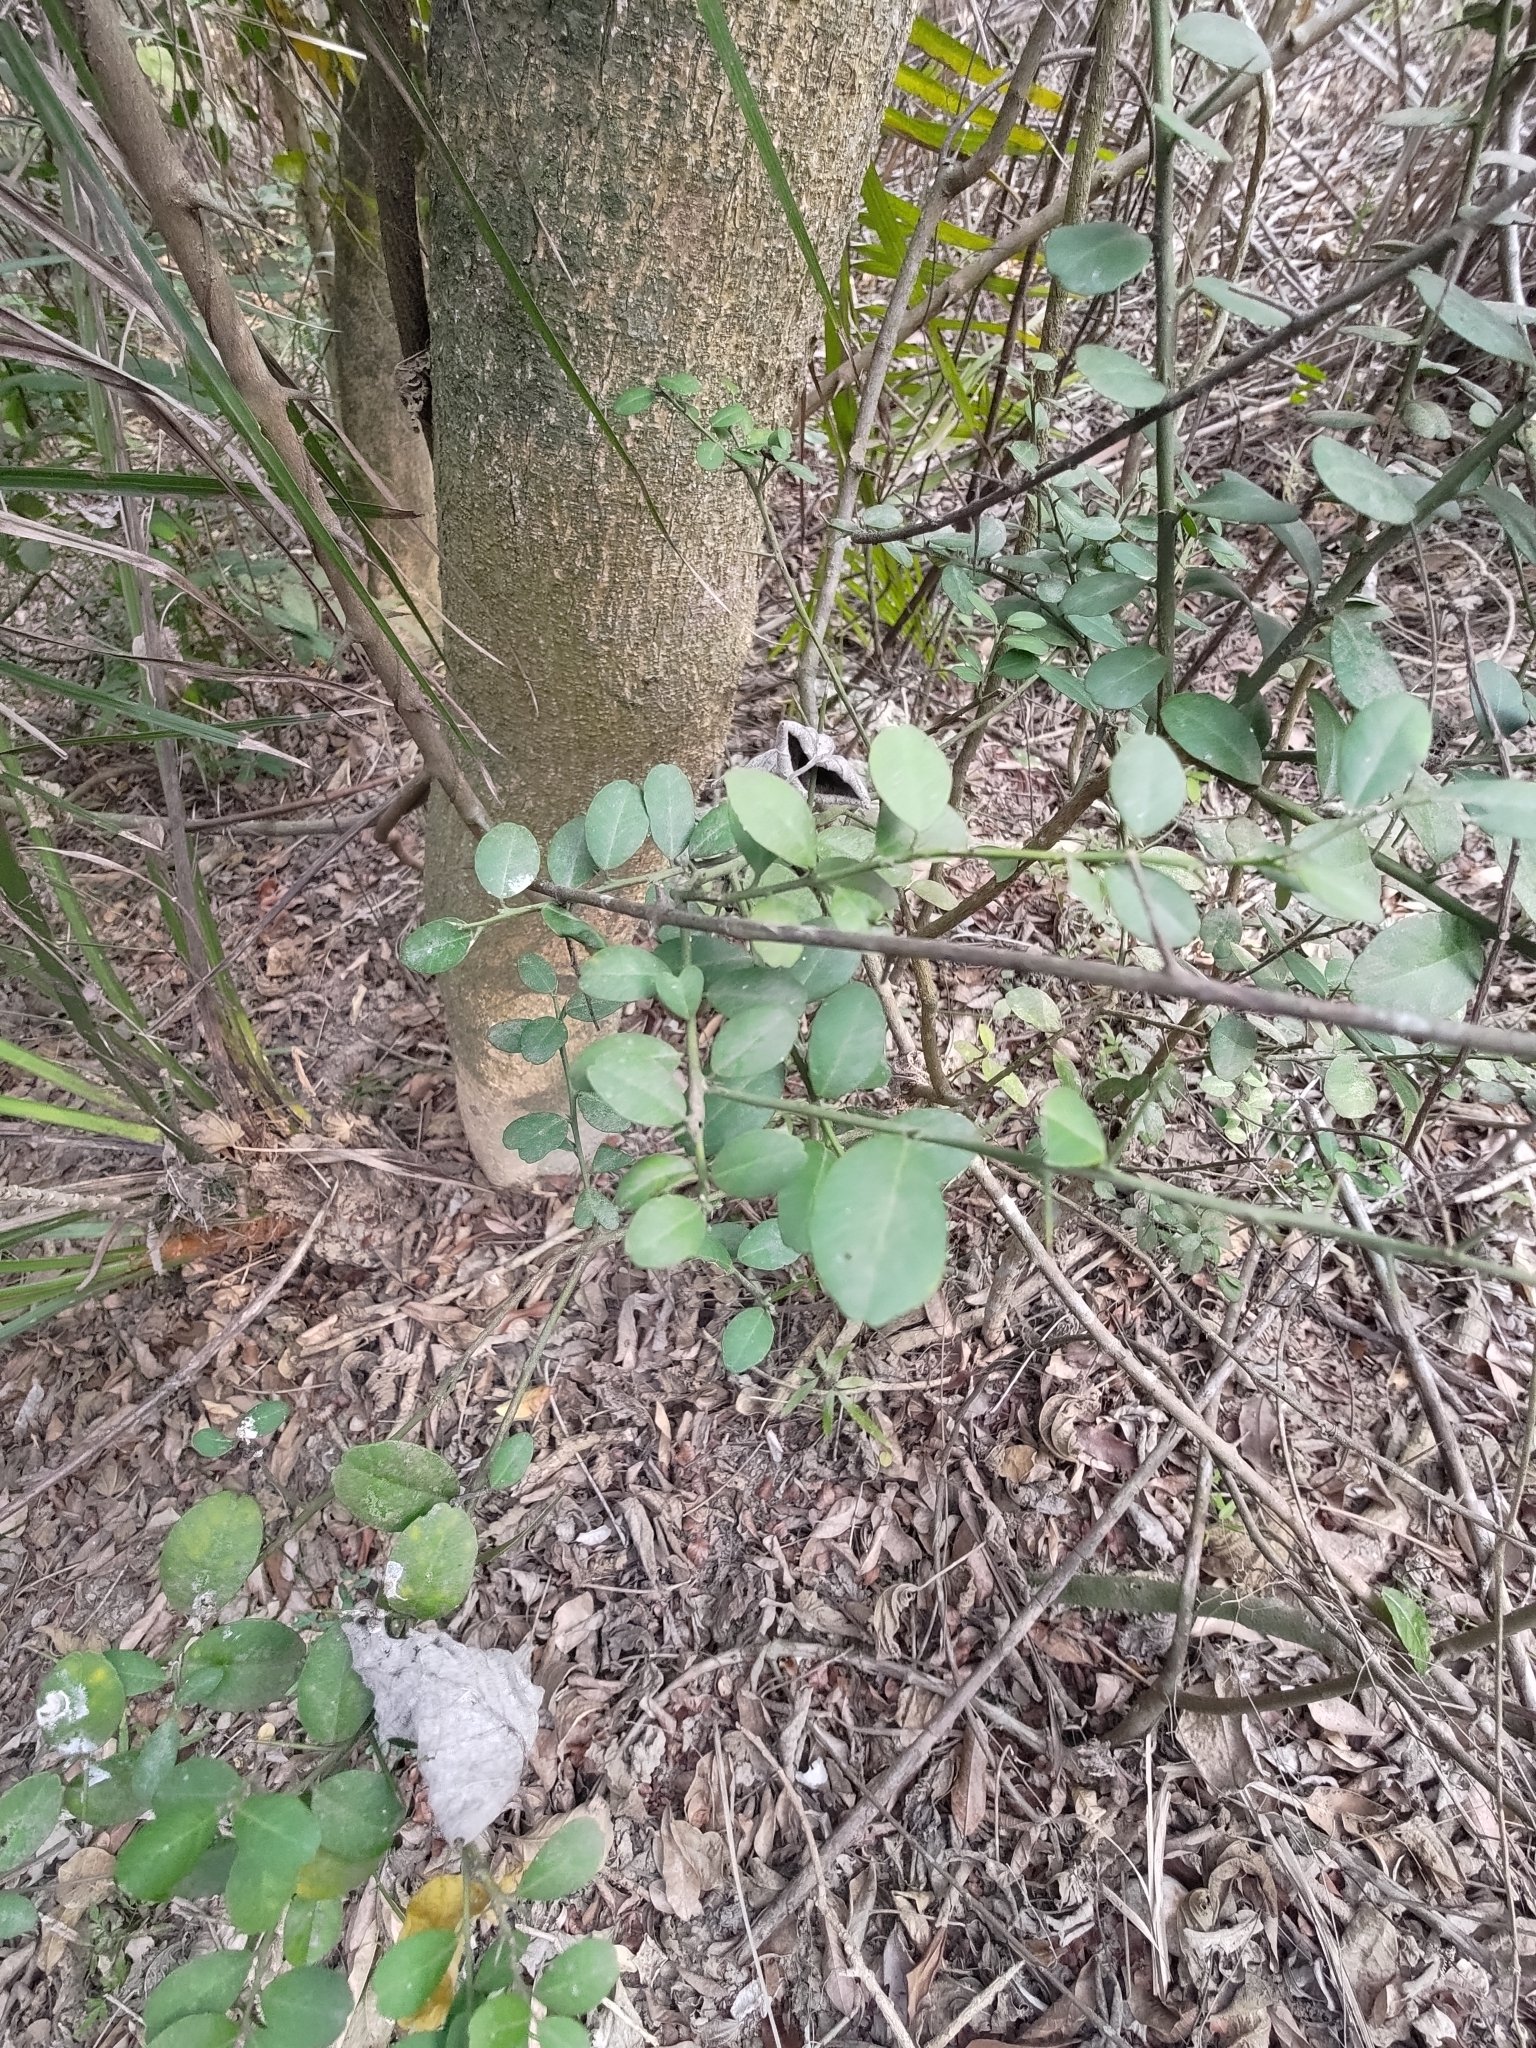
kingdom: Plantae
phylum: Tracheophyta
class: Magnoliopsida
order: Sapindales
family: Rutaceae
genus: Atalantia
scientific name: Atalantia buxifolia
